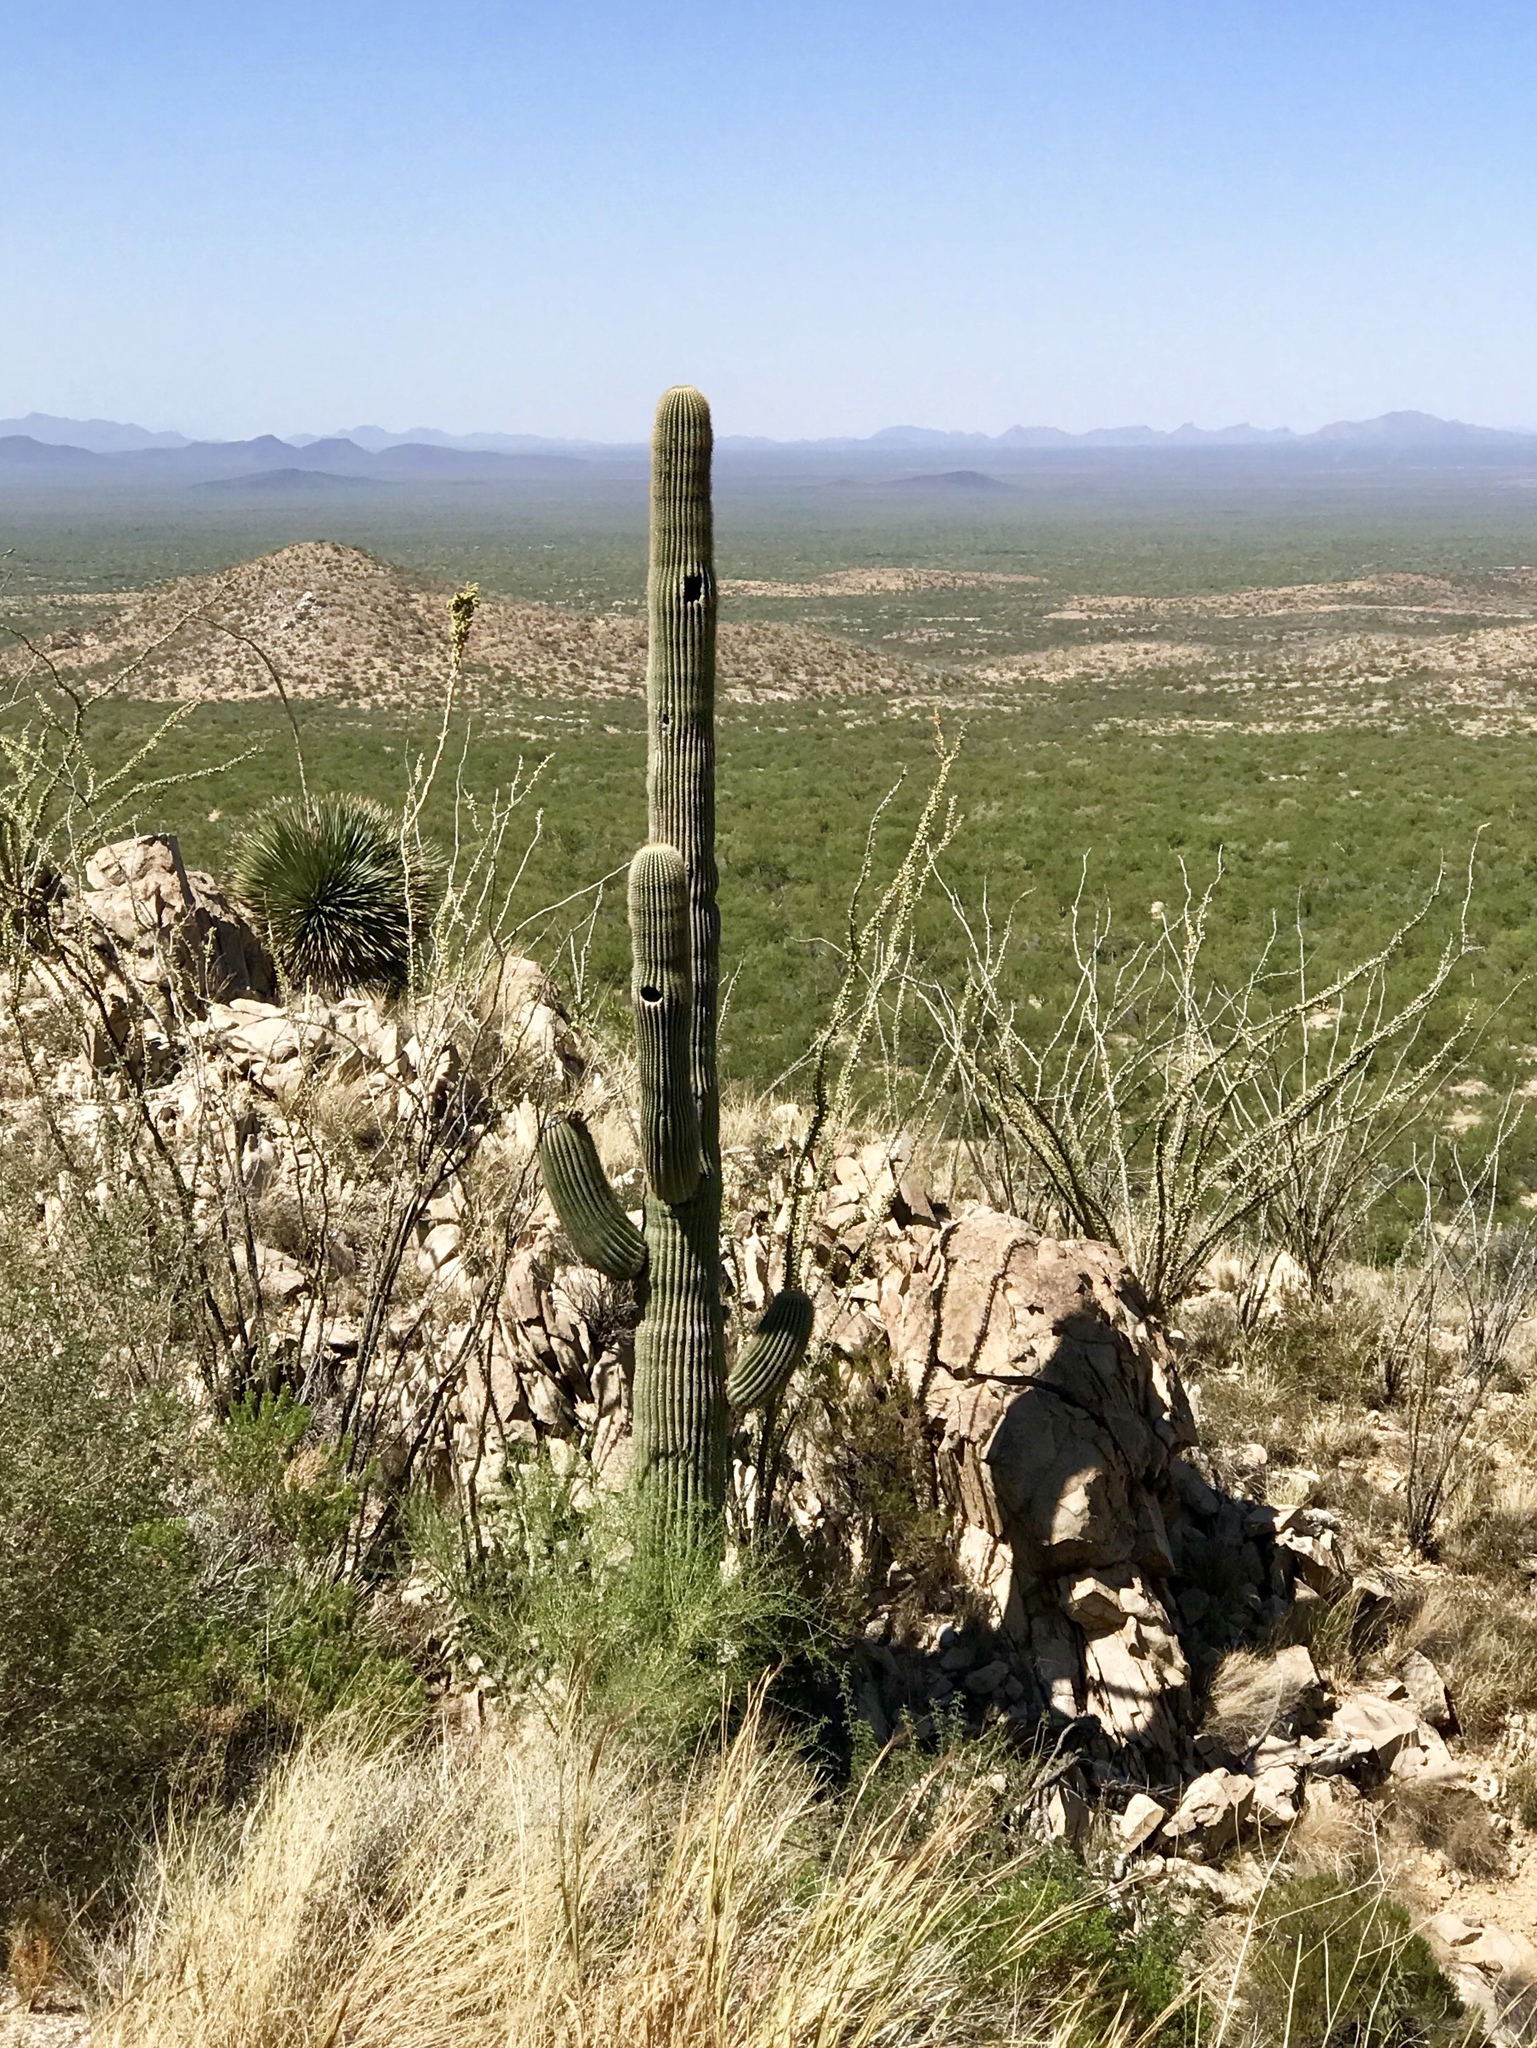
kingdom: Plantae
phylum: Tracheophyta
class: Magnoliopsida
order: Caryophyllales
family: Cactaceae
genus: Carnegiea
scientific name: Carnegiea gigantea
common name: Saguaro
